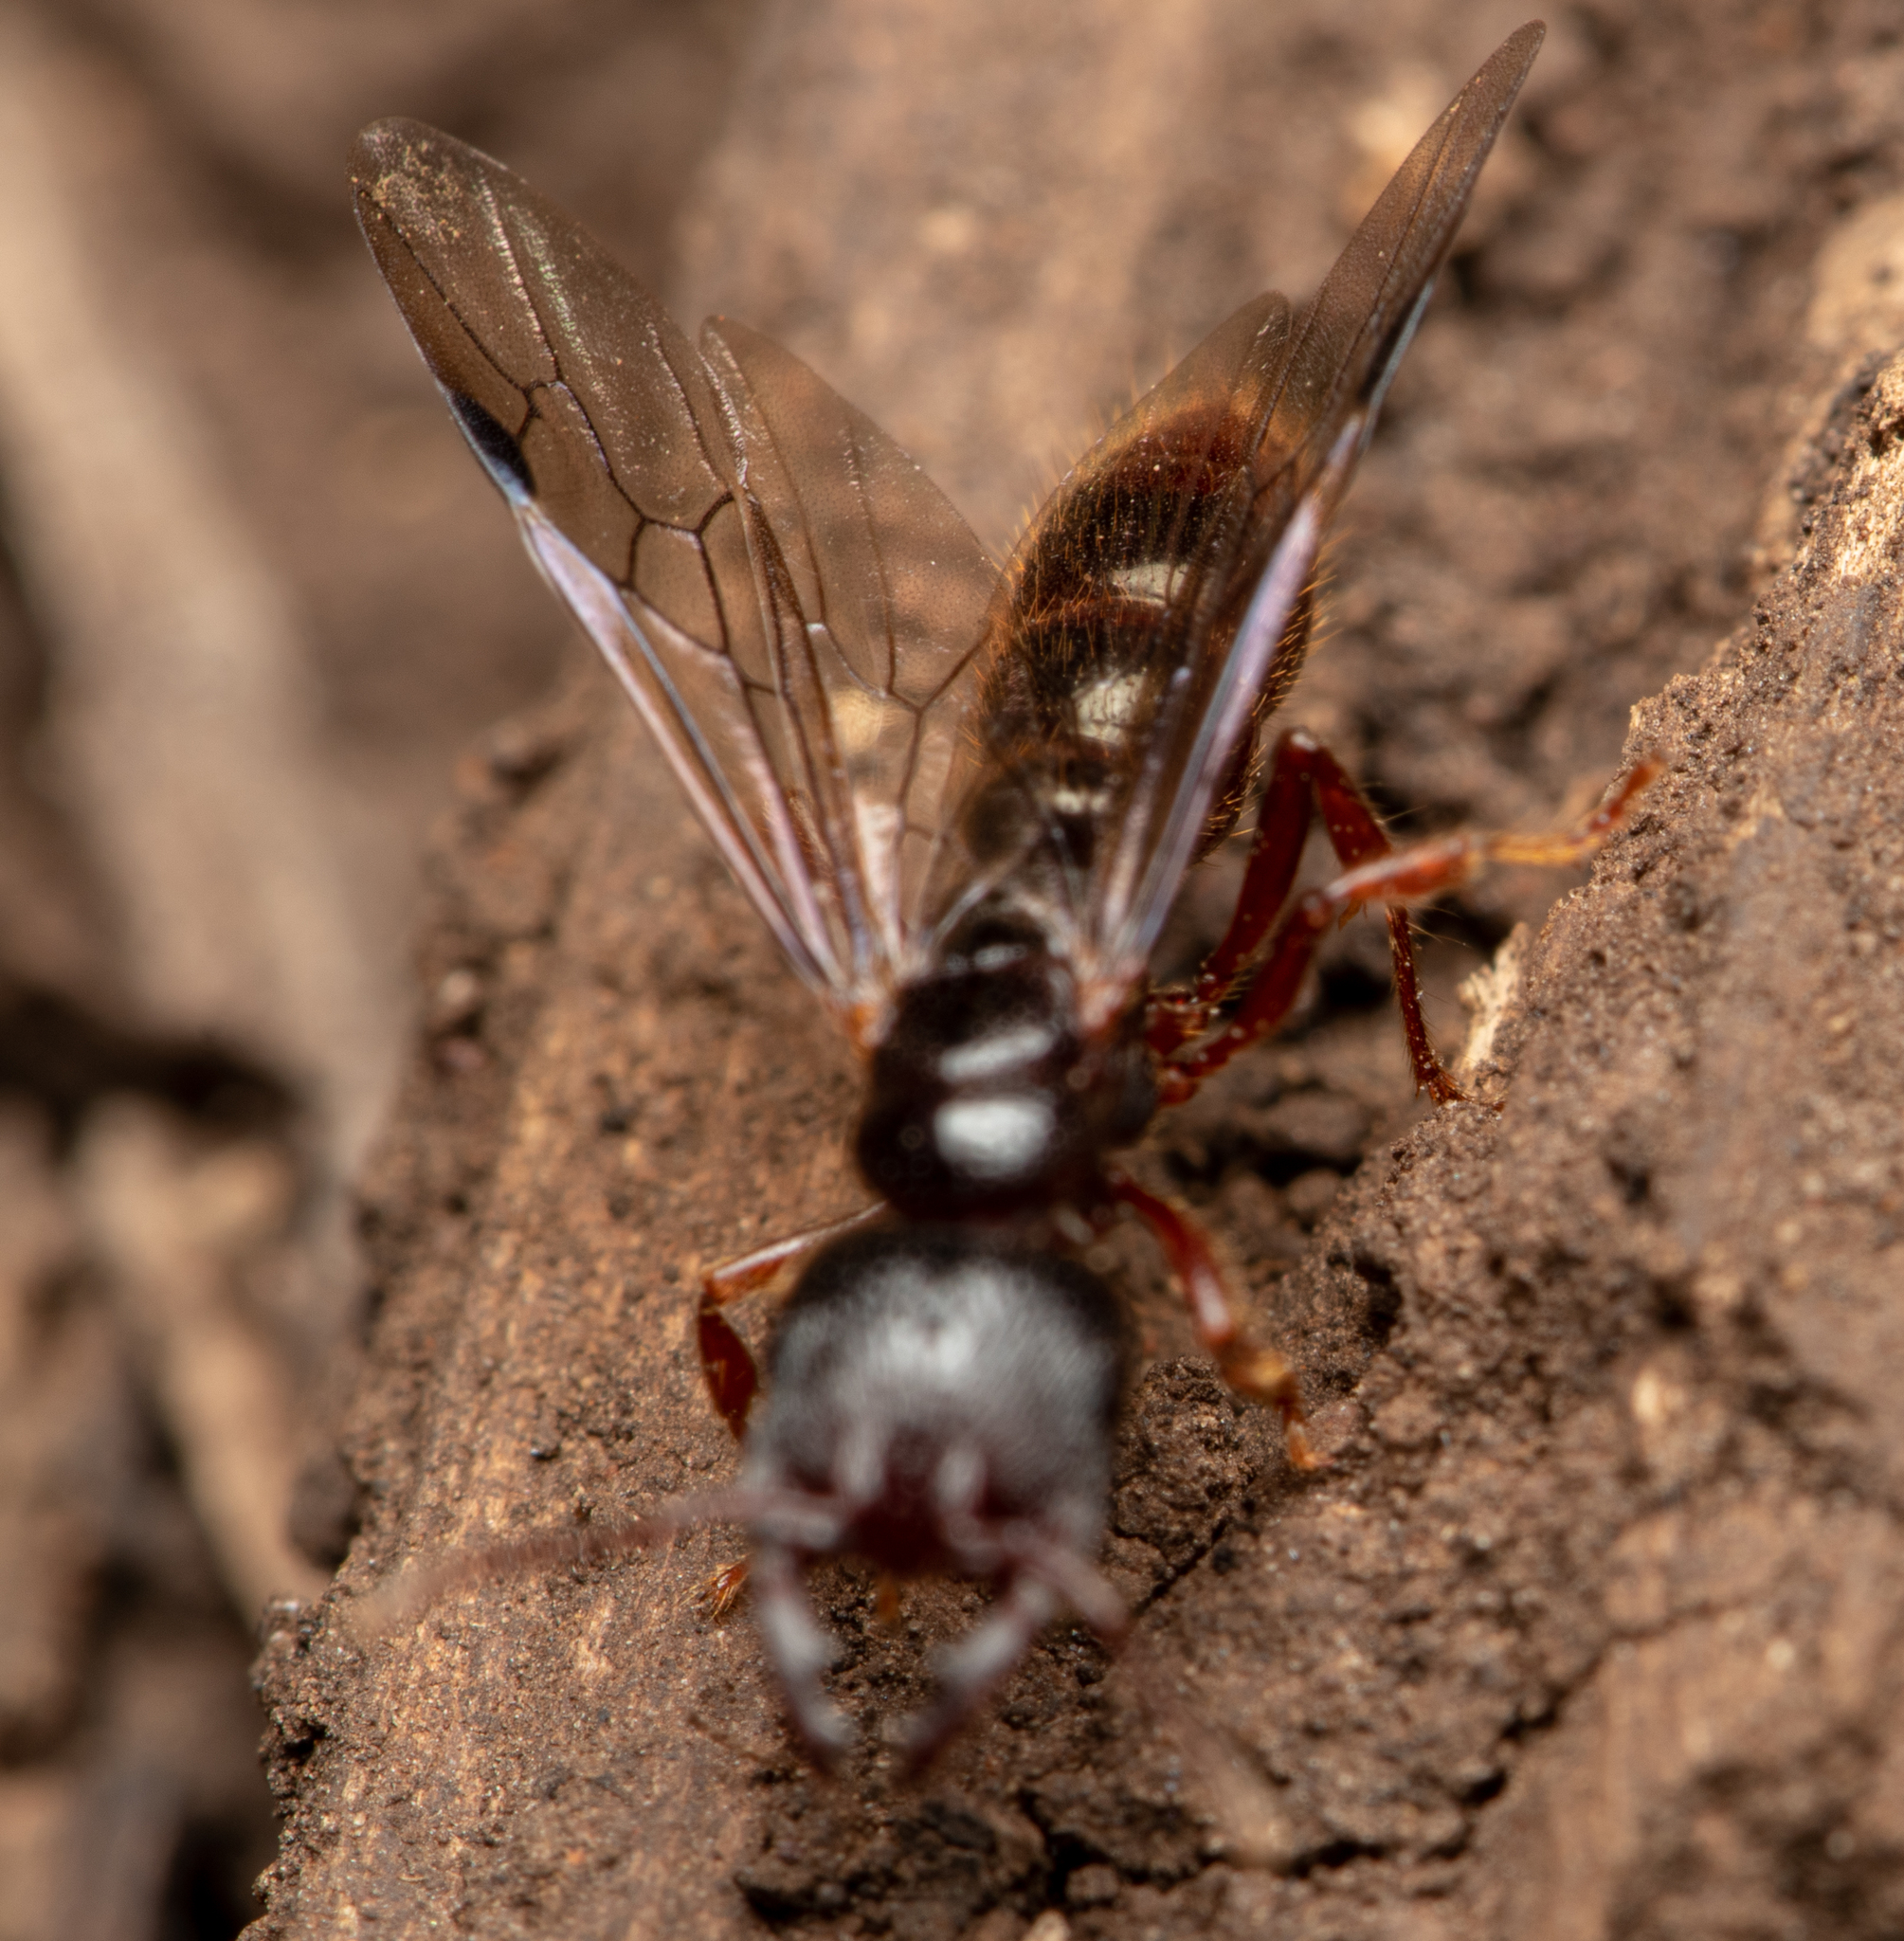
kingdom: Animalia
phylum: Arthropoda
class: Insecta
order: Hymenoptera
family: Formicidae
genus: Amblyopone
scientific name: Amblyopone australis
